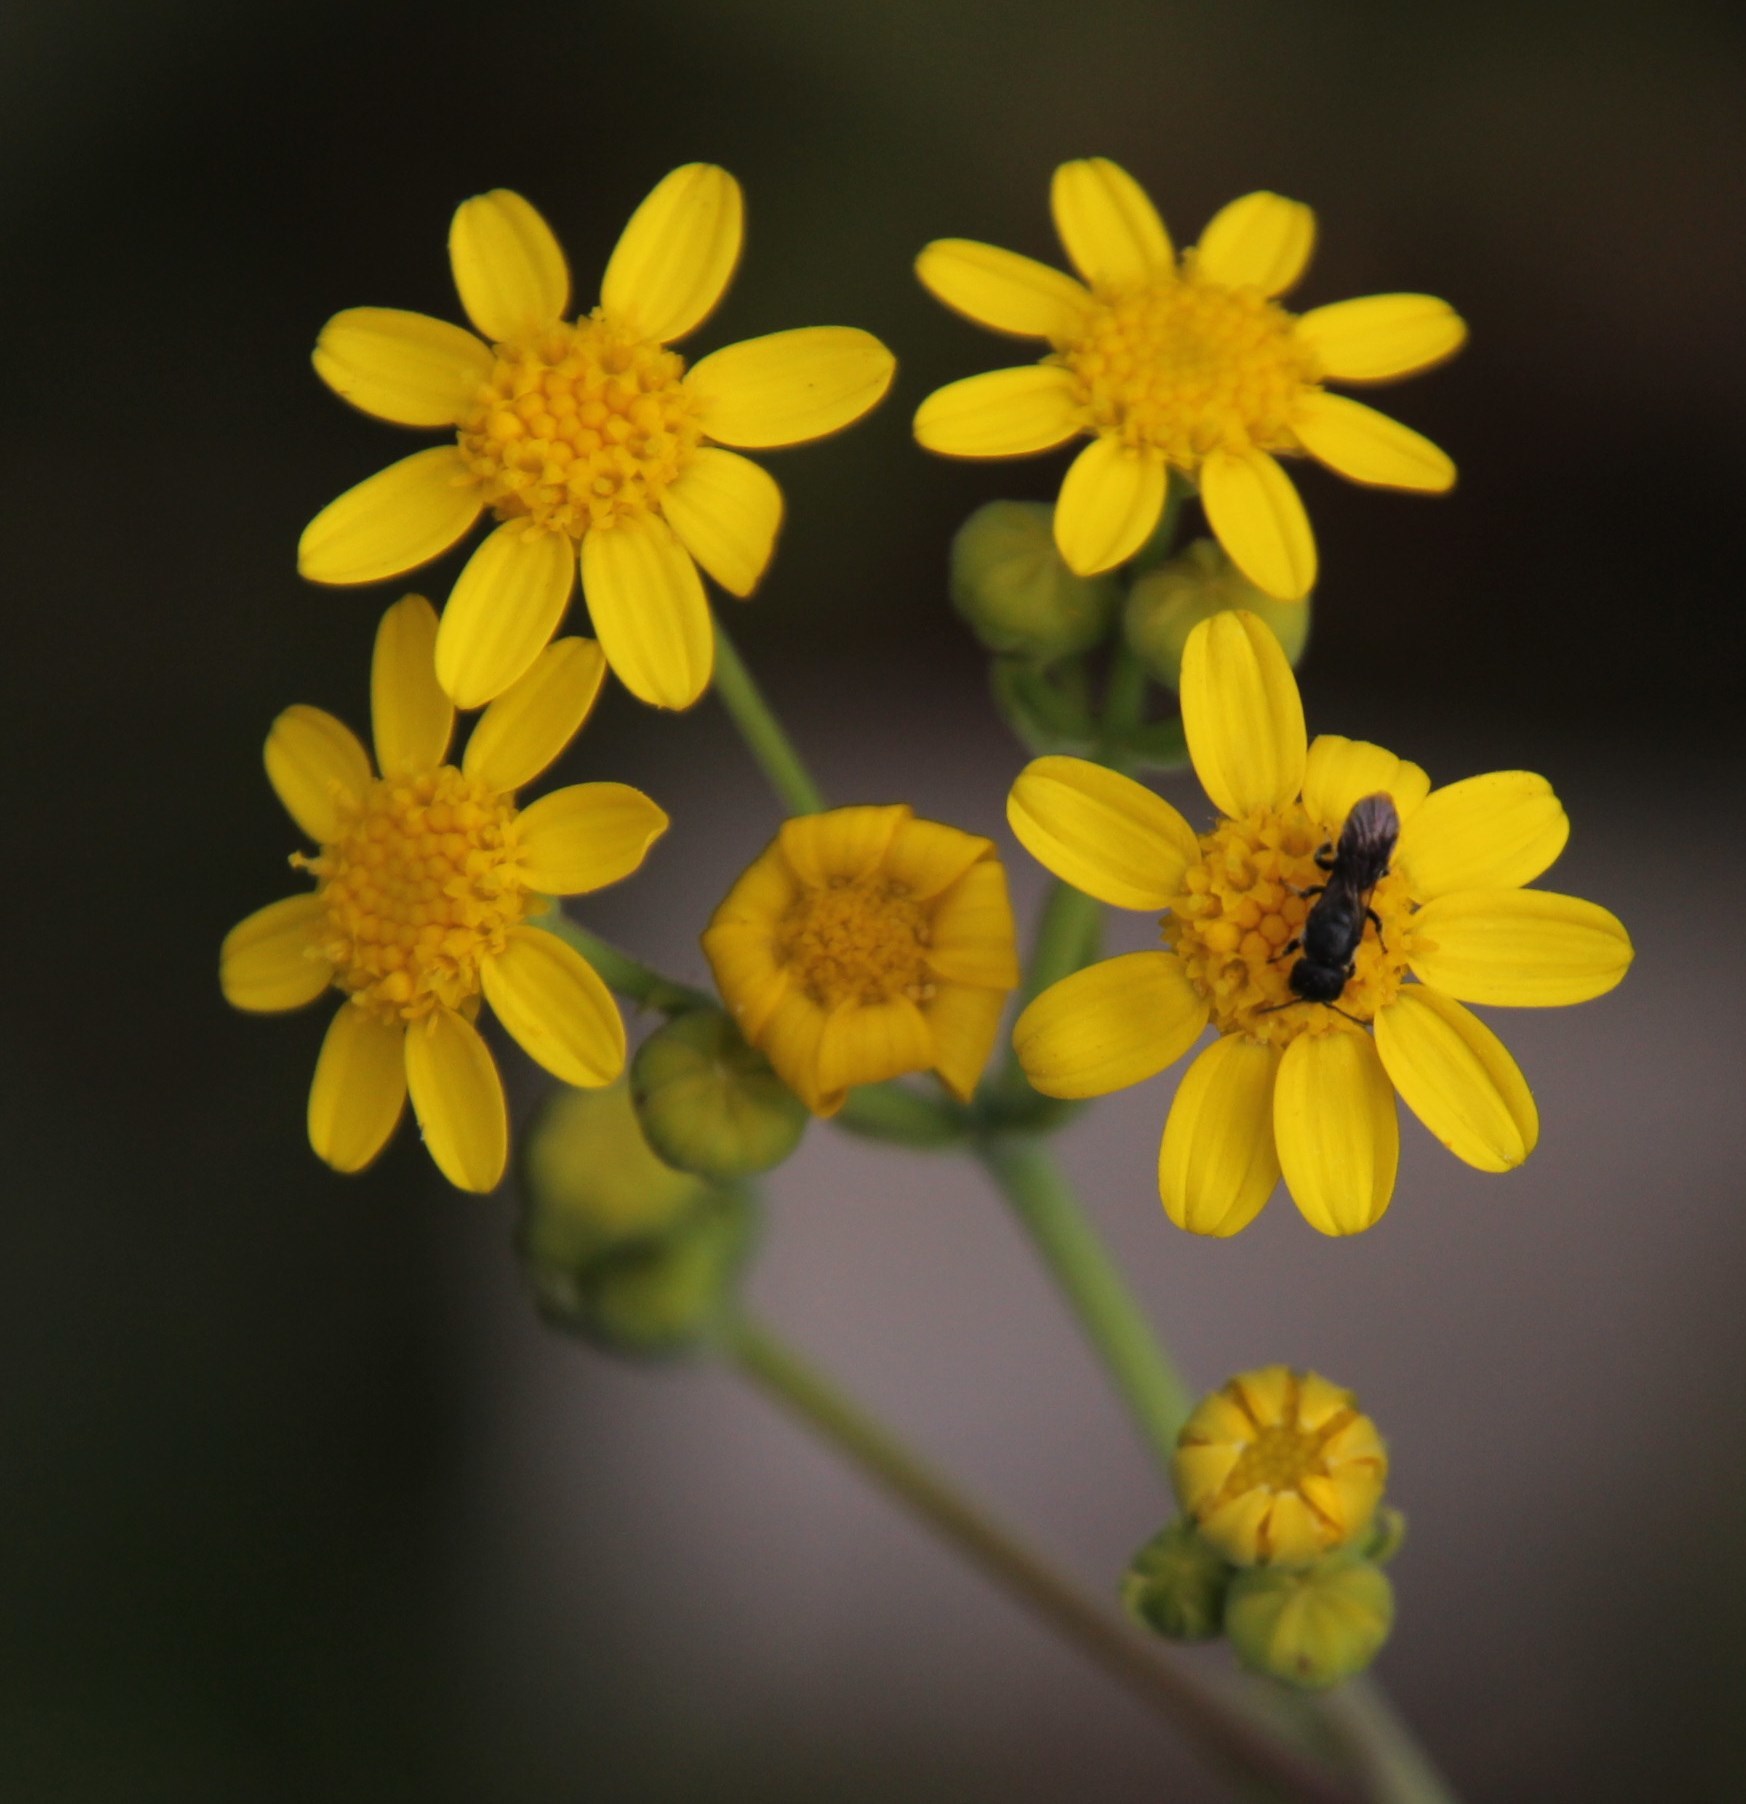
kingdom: Plantae
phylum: Tracheophyta
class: Magnoliopsida
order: Asterales
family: Asteraceae
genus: Othonna
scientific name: Othonna quinquedentata
